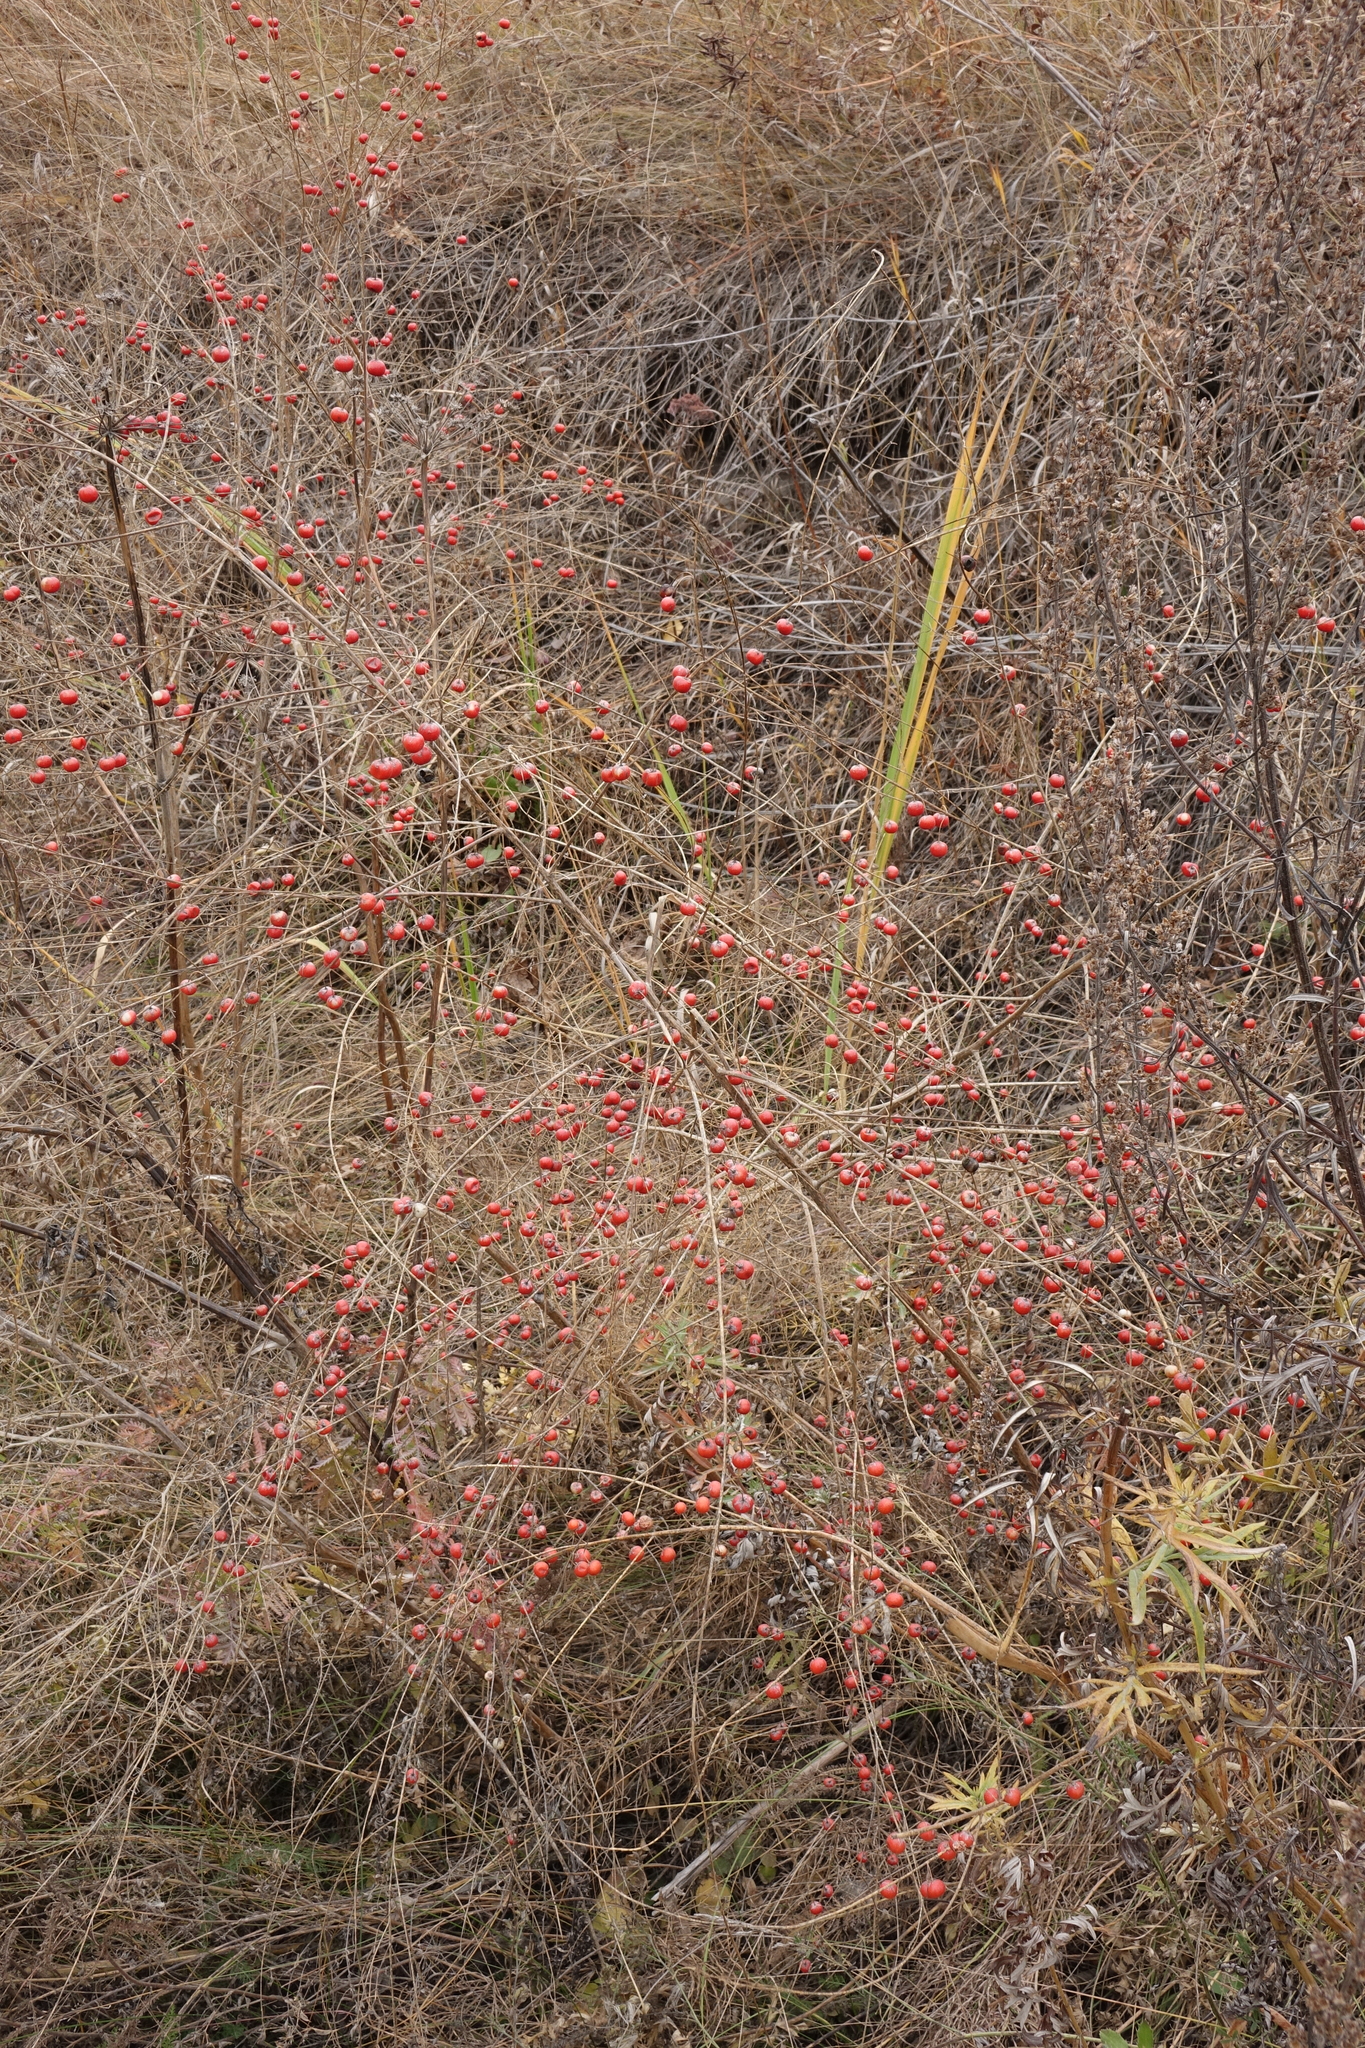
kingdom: Plantae
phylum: Tracheophyta
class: Liliopsida
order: Asparagales
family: Asparagaceae
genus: Asparagus
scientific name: Asparagus officinalis
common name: Garden asparagus
